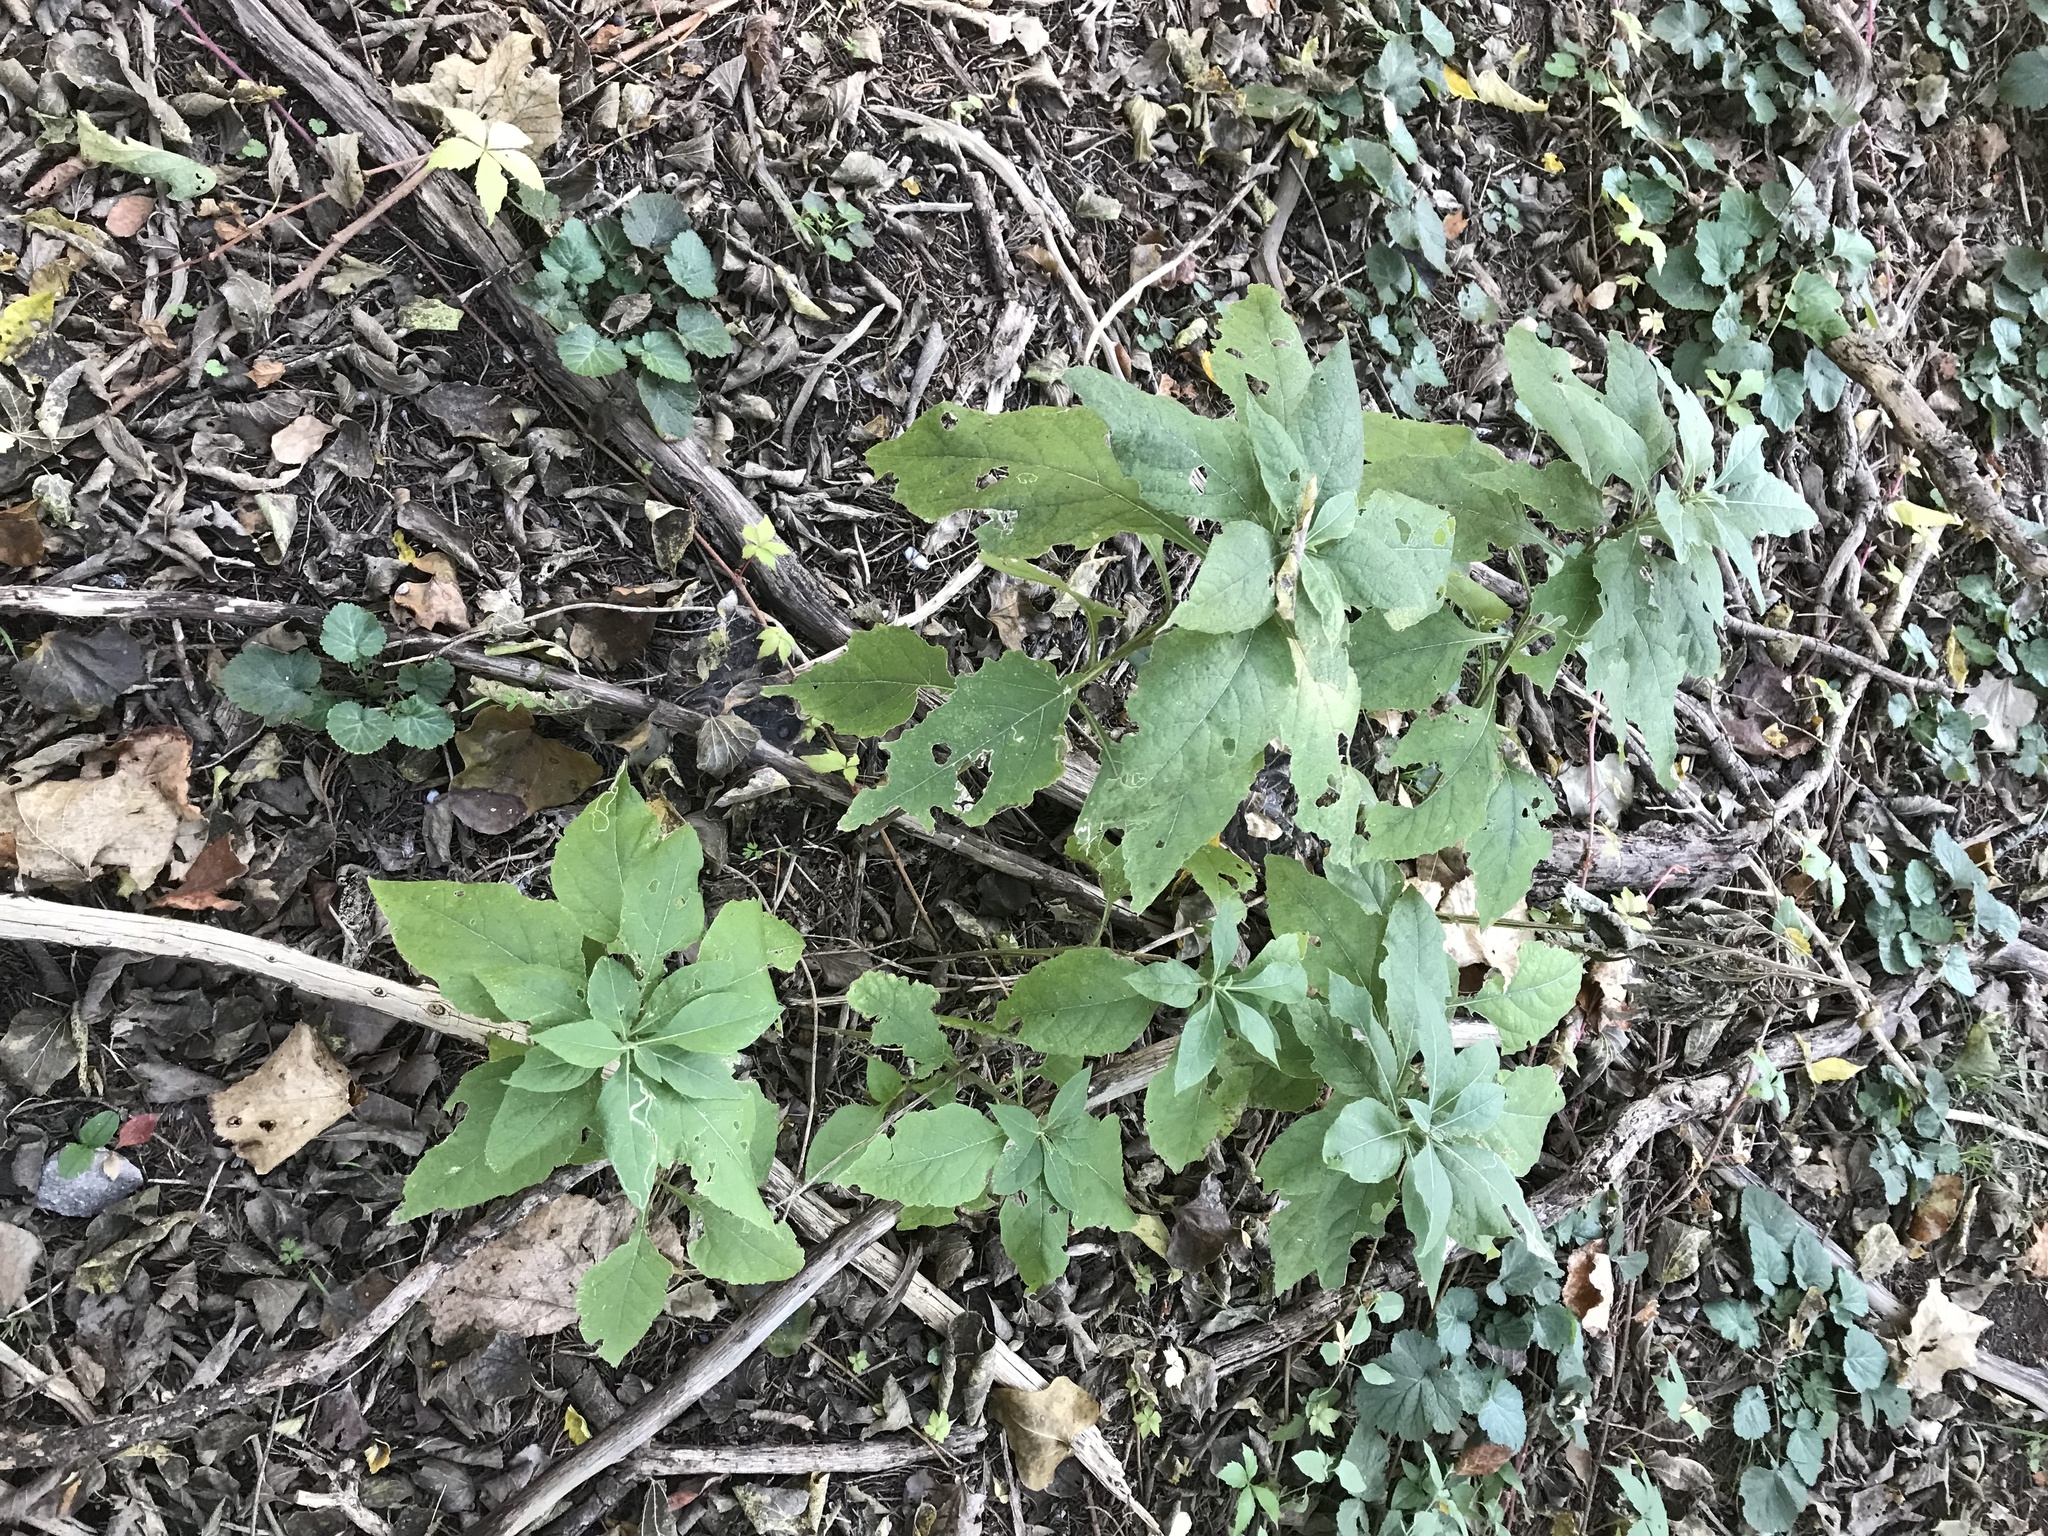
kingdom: Plantae
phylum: Tracheophyta
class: Magnoliopsida
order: Asterales
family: Asteraceae
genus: Verbesina
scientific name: Verbesina virginica
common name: Frostweed
